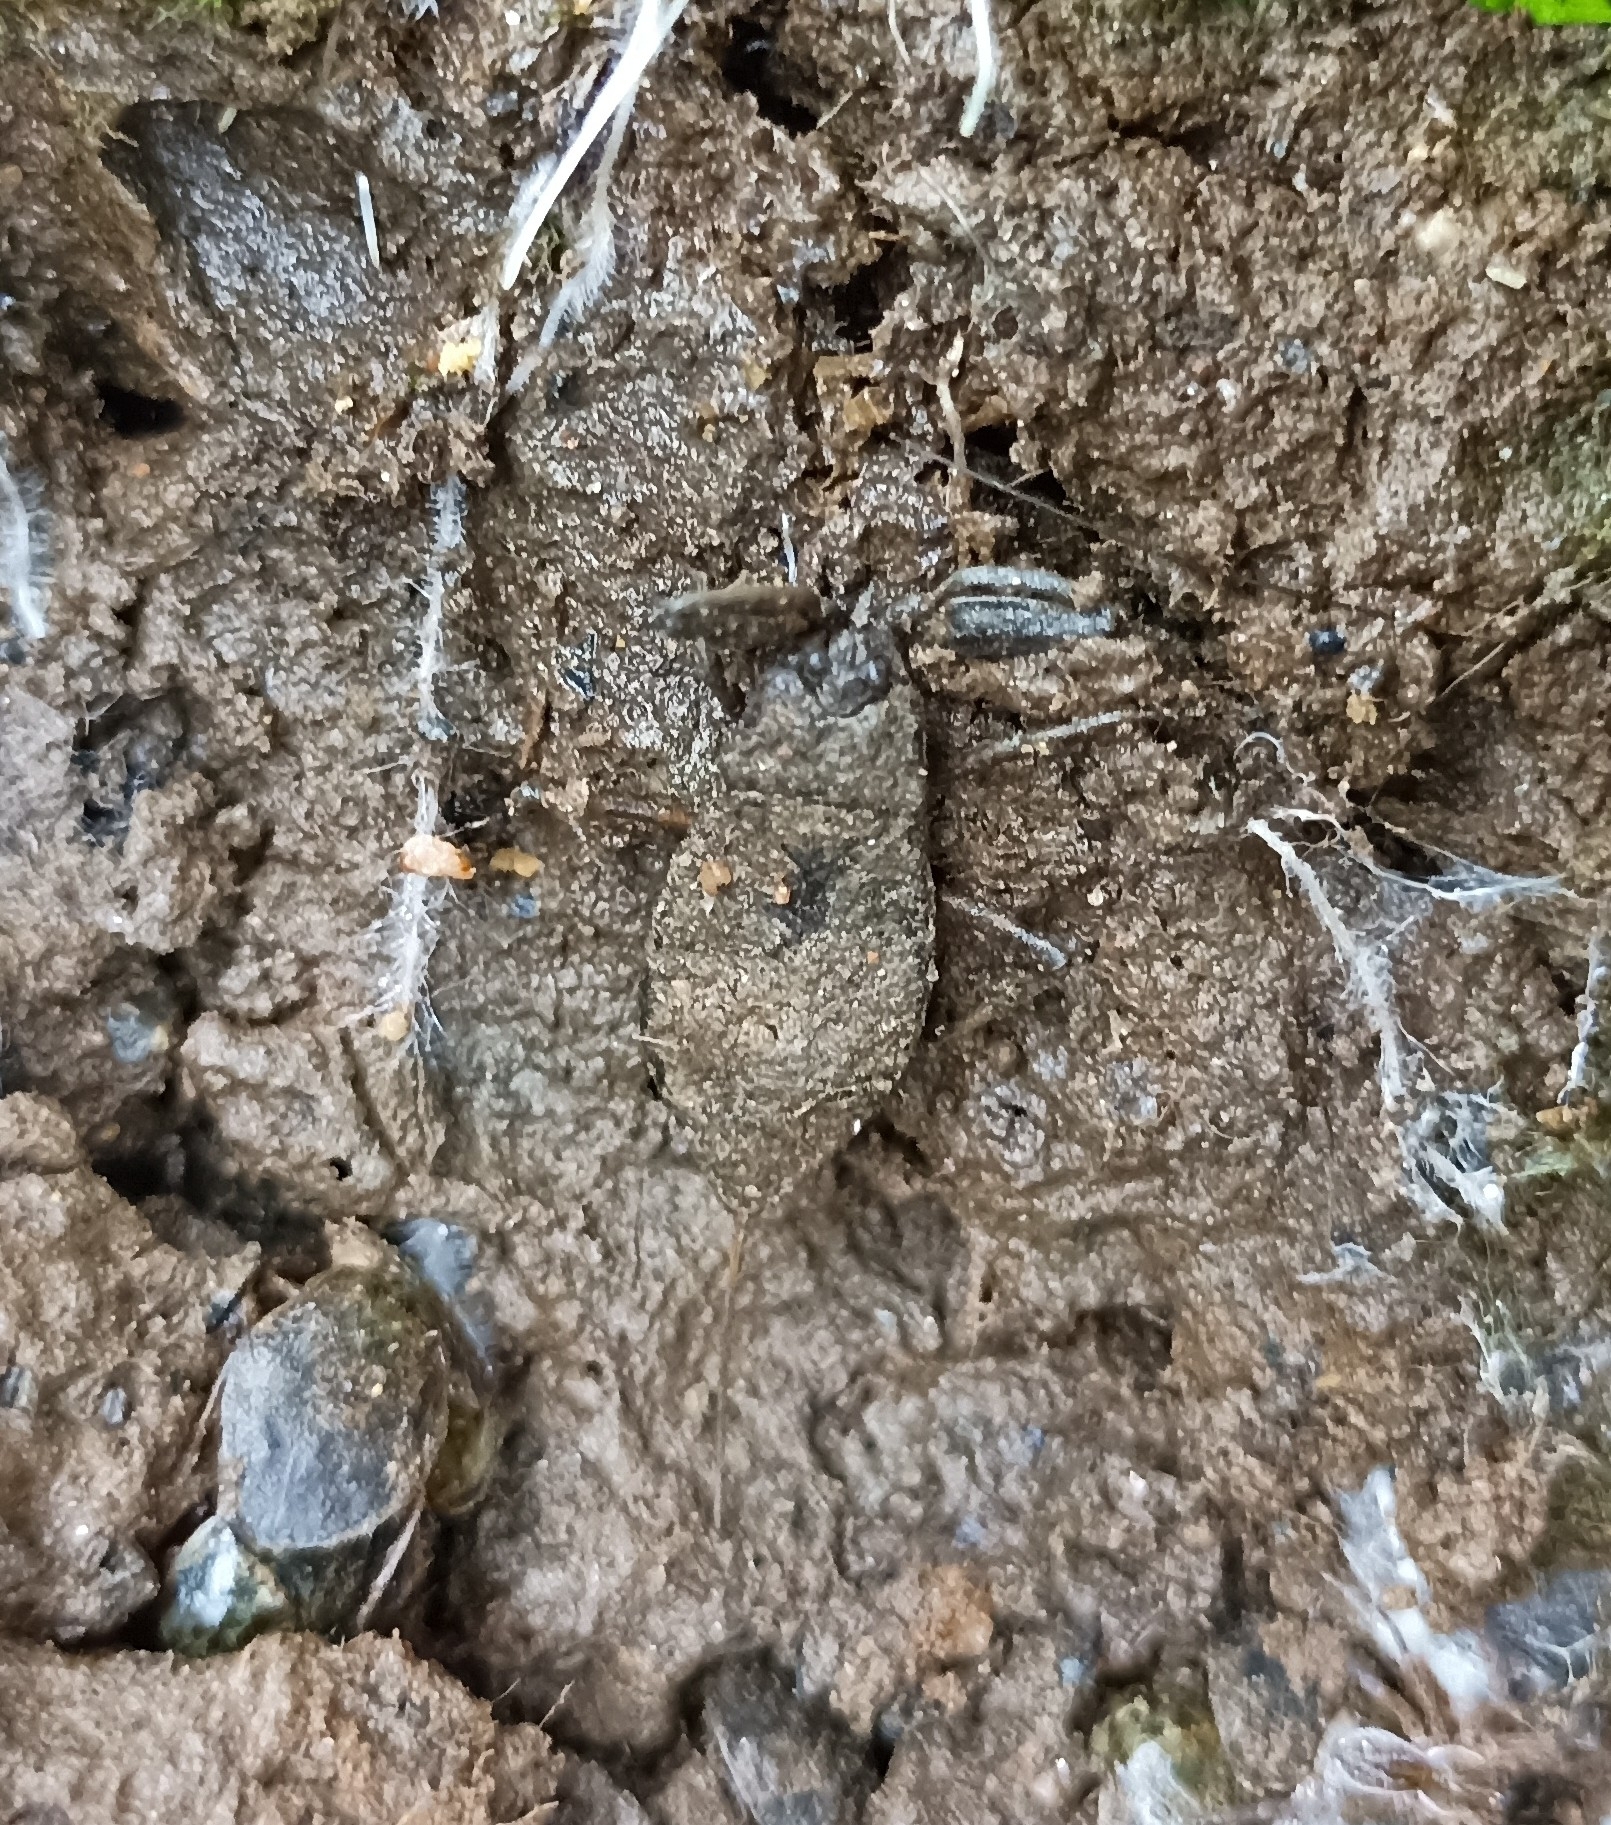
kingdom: Animalia
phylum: Arthropoda
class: Insecta
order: Hemiptera
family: Nepidae
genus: Nepa
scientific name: Nepa cinerea
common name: Water scorpion
